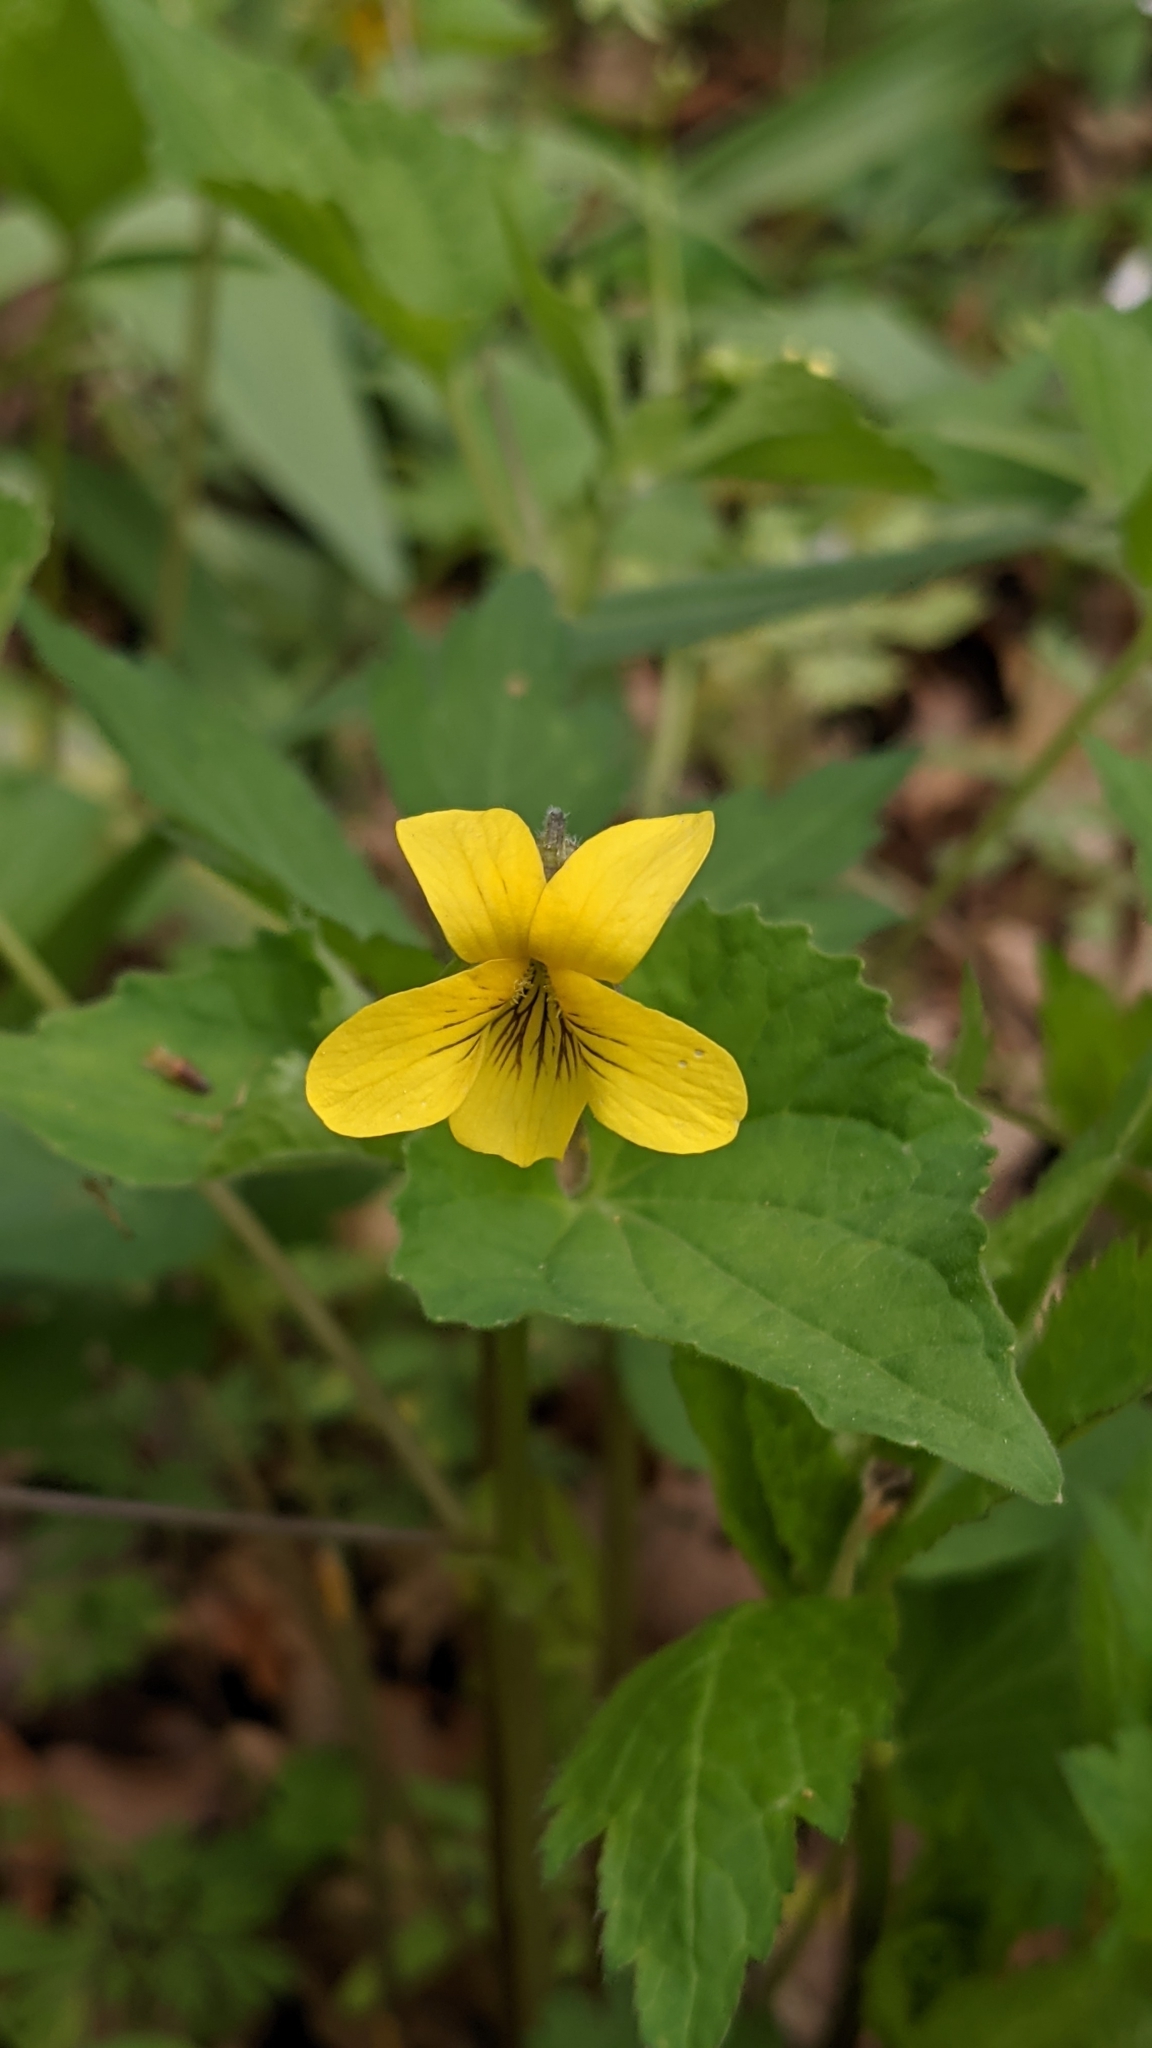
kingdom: Plantae
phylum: Tracheophyta
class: Magnoliopsida
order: Malpighiales
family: Violaceae
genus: Viola
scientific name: Viola eriocarpa
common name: Smooth yellow violet
